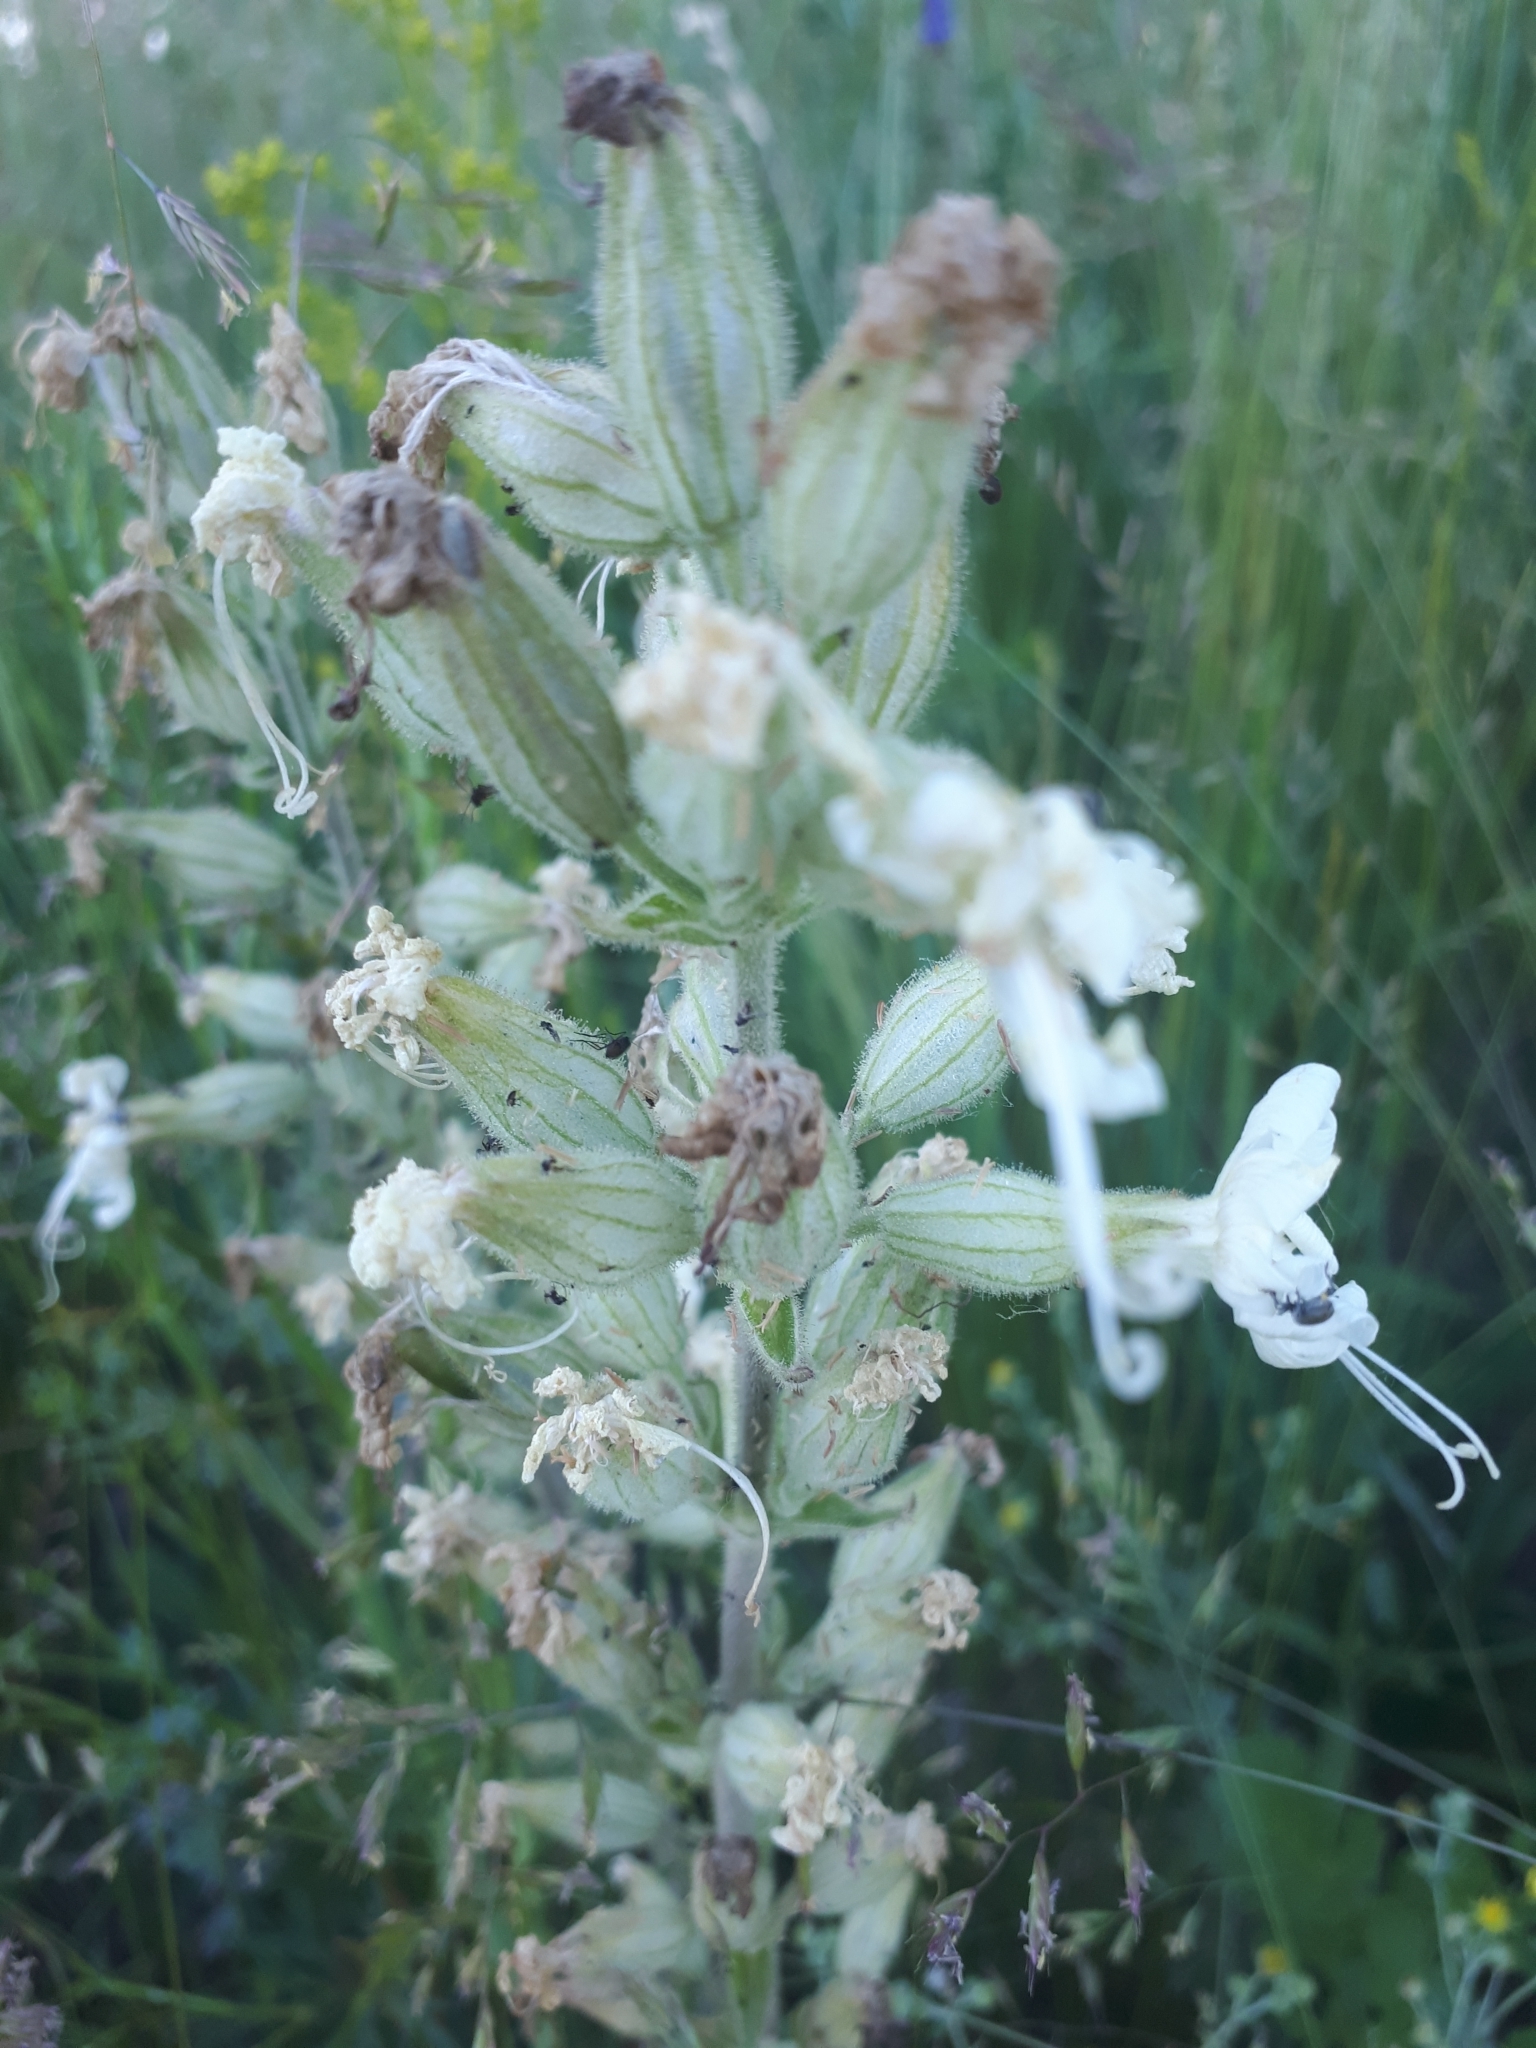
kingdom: Plantae
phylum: Tracheophyta
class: Magnoliopsida
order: Caryophyllales
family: Caryophyllaceae
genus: Silene
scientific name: Silene viscosa
